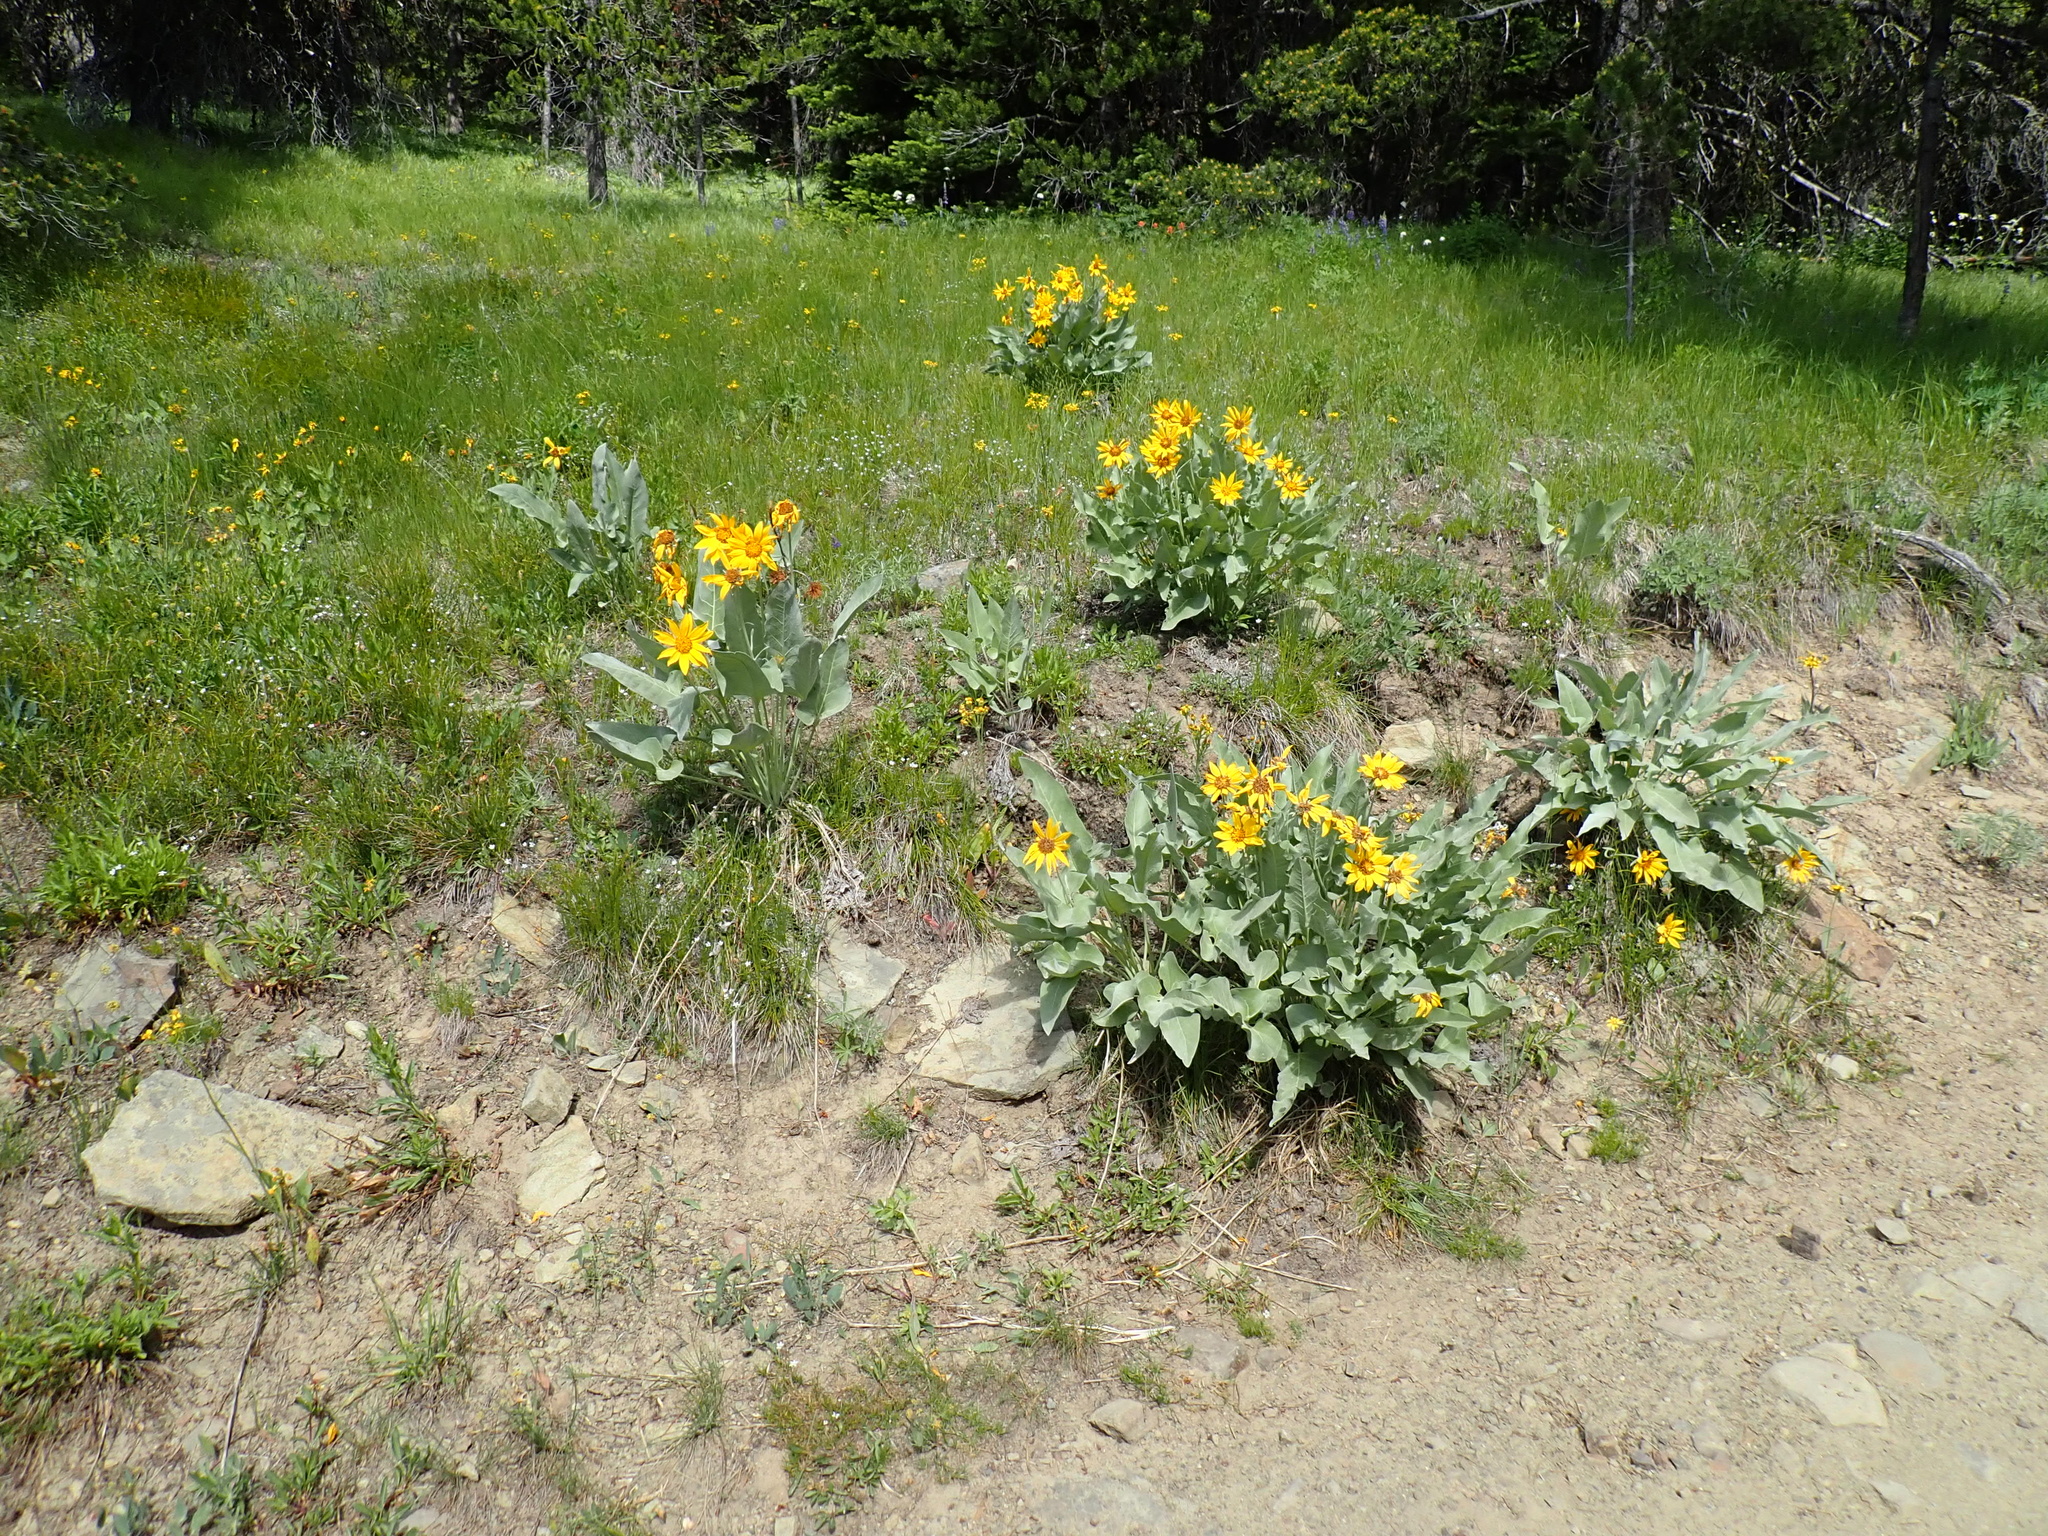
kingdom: Plantae
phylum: Tracheophyta
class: Magnoliopsida
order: Asterales
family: Asteraceae
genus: Wyethia
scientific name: Wyethia sagittata
